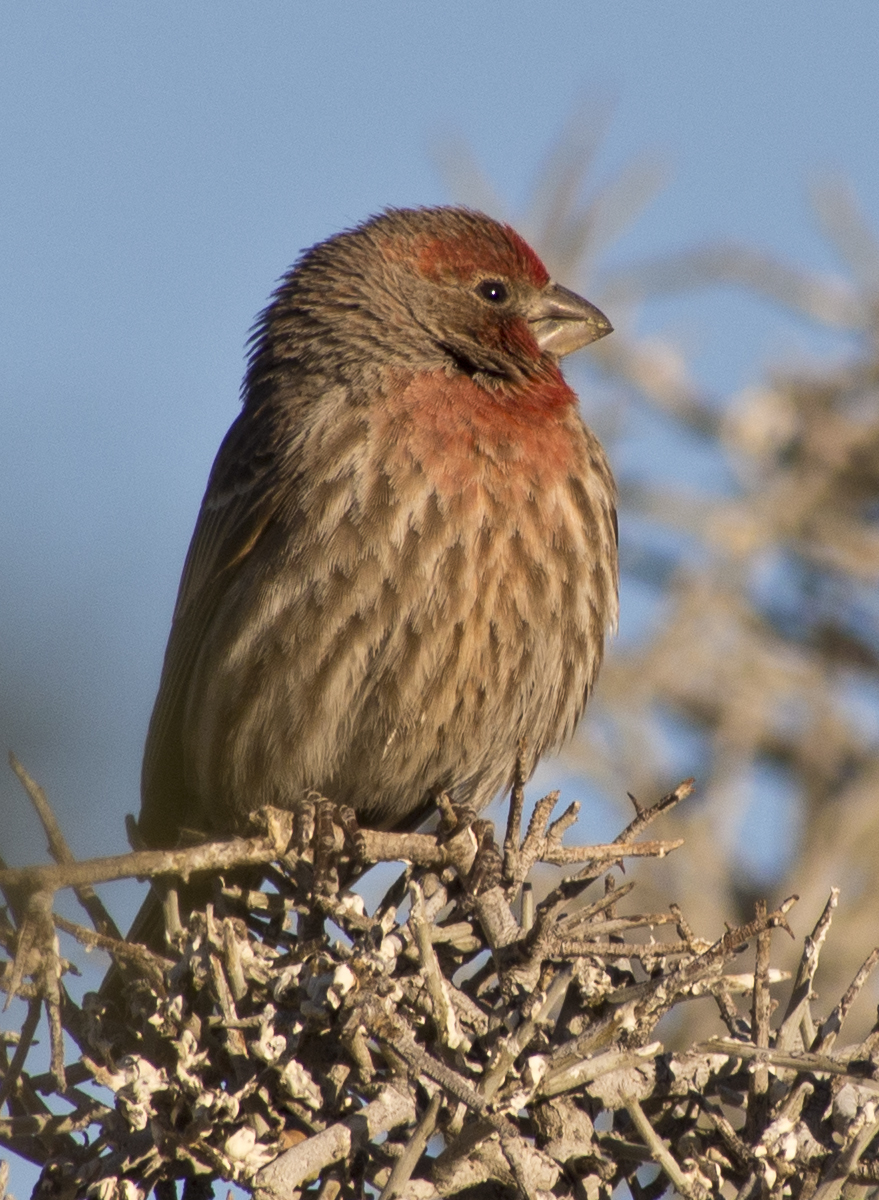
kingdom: Animalia
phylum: Chordata
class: Aves
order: Passeriformes
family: Fringillidae
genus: Haemorhous
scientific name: Haemorhous mexicanus
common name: House finch
